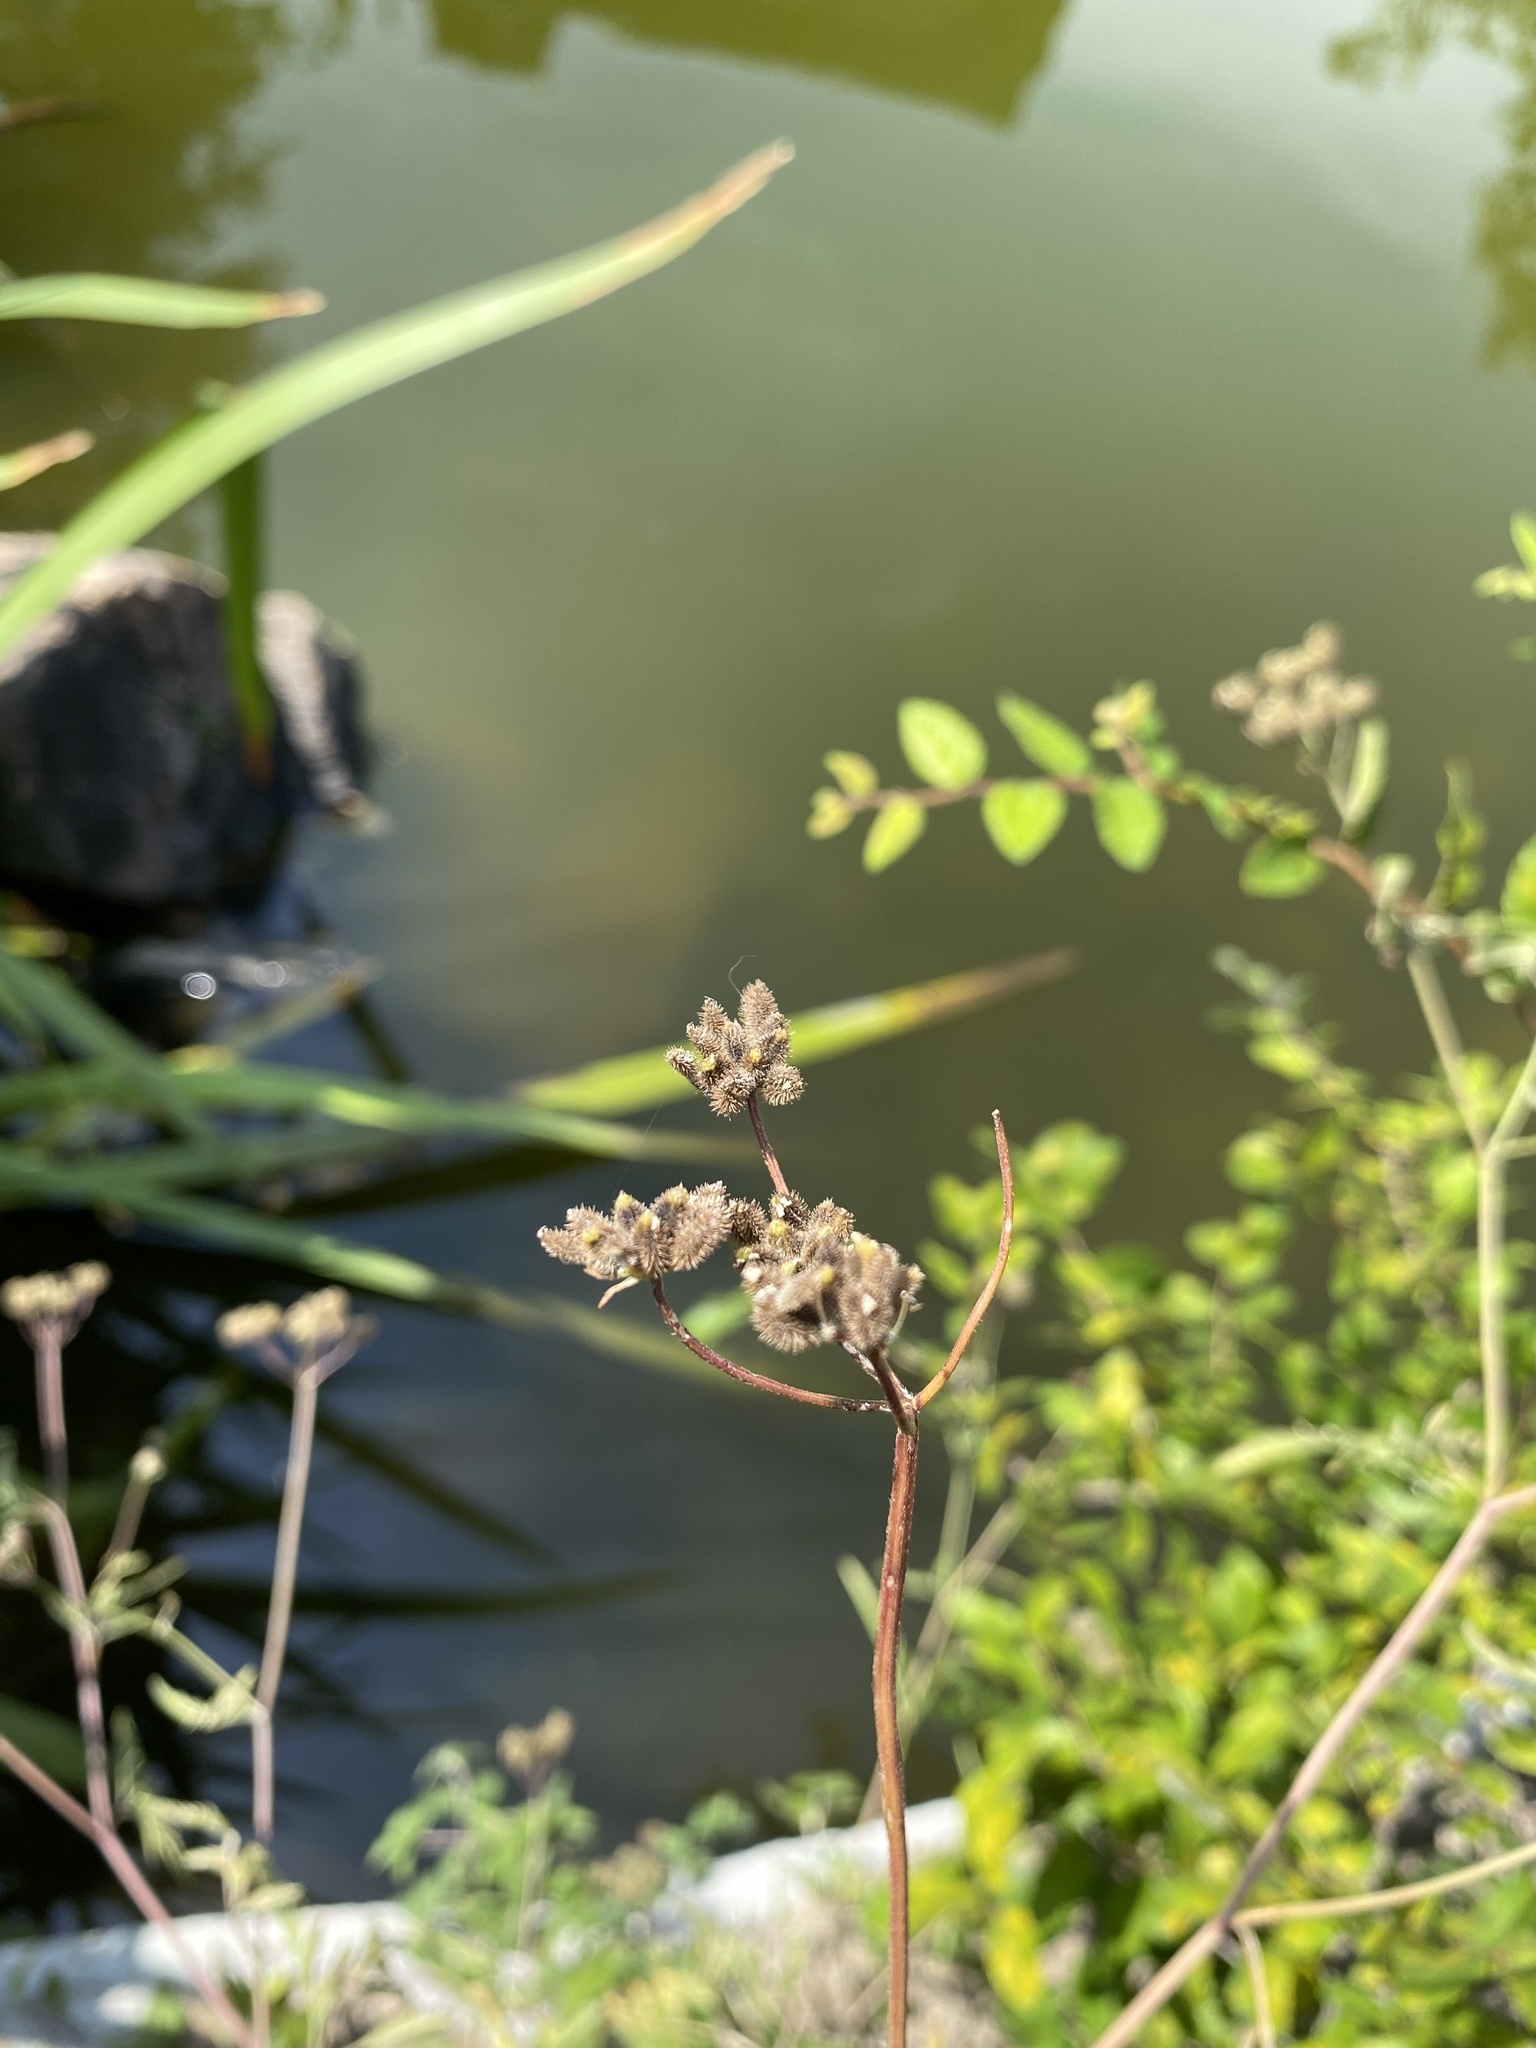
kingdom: Plantae
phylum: Tracheophyta
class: Magnoliopsida
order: Apiales
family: Apiaceae
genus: Torilis
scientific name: Torilis arvensis
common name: Spreading hedge-parsley
